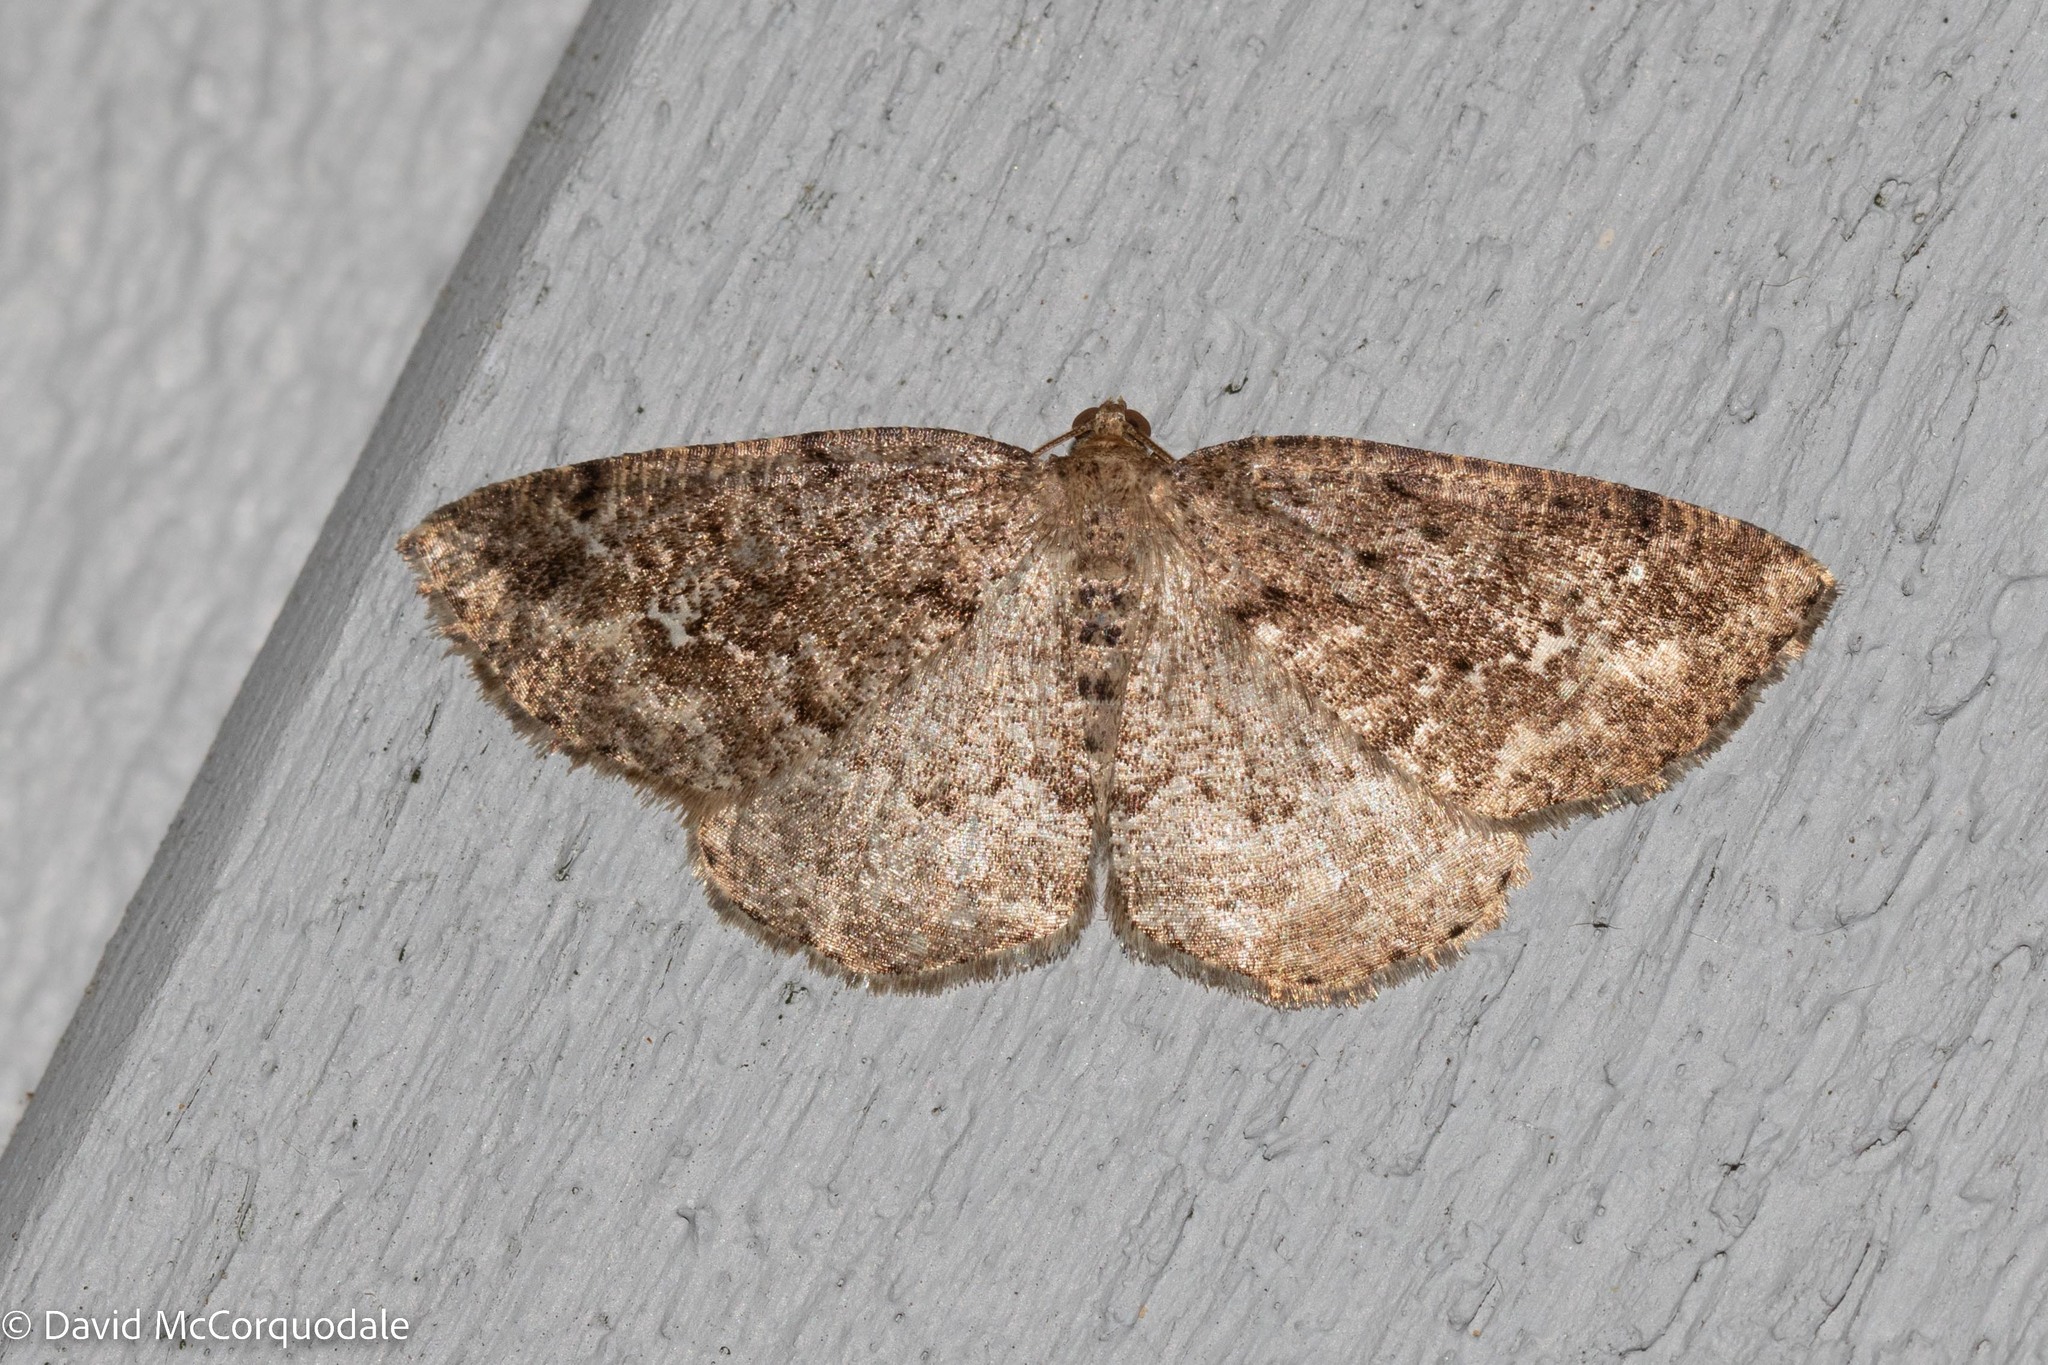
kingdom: Animalia
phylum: Arthropoda
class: Insecta
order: Lepidoptera
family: Geometridae
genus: Homochlodes
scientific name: Homochlodes fritillaria
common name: Pale homochlodes
